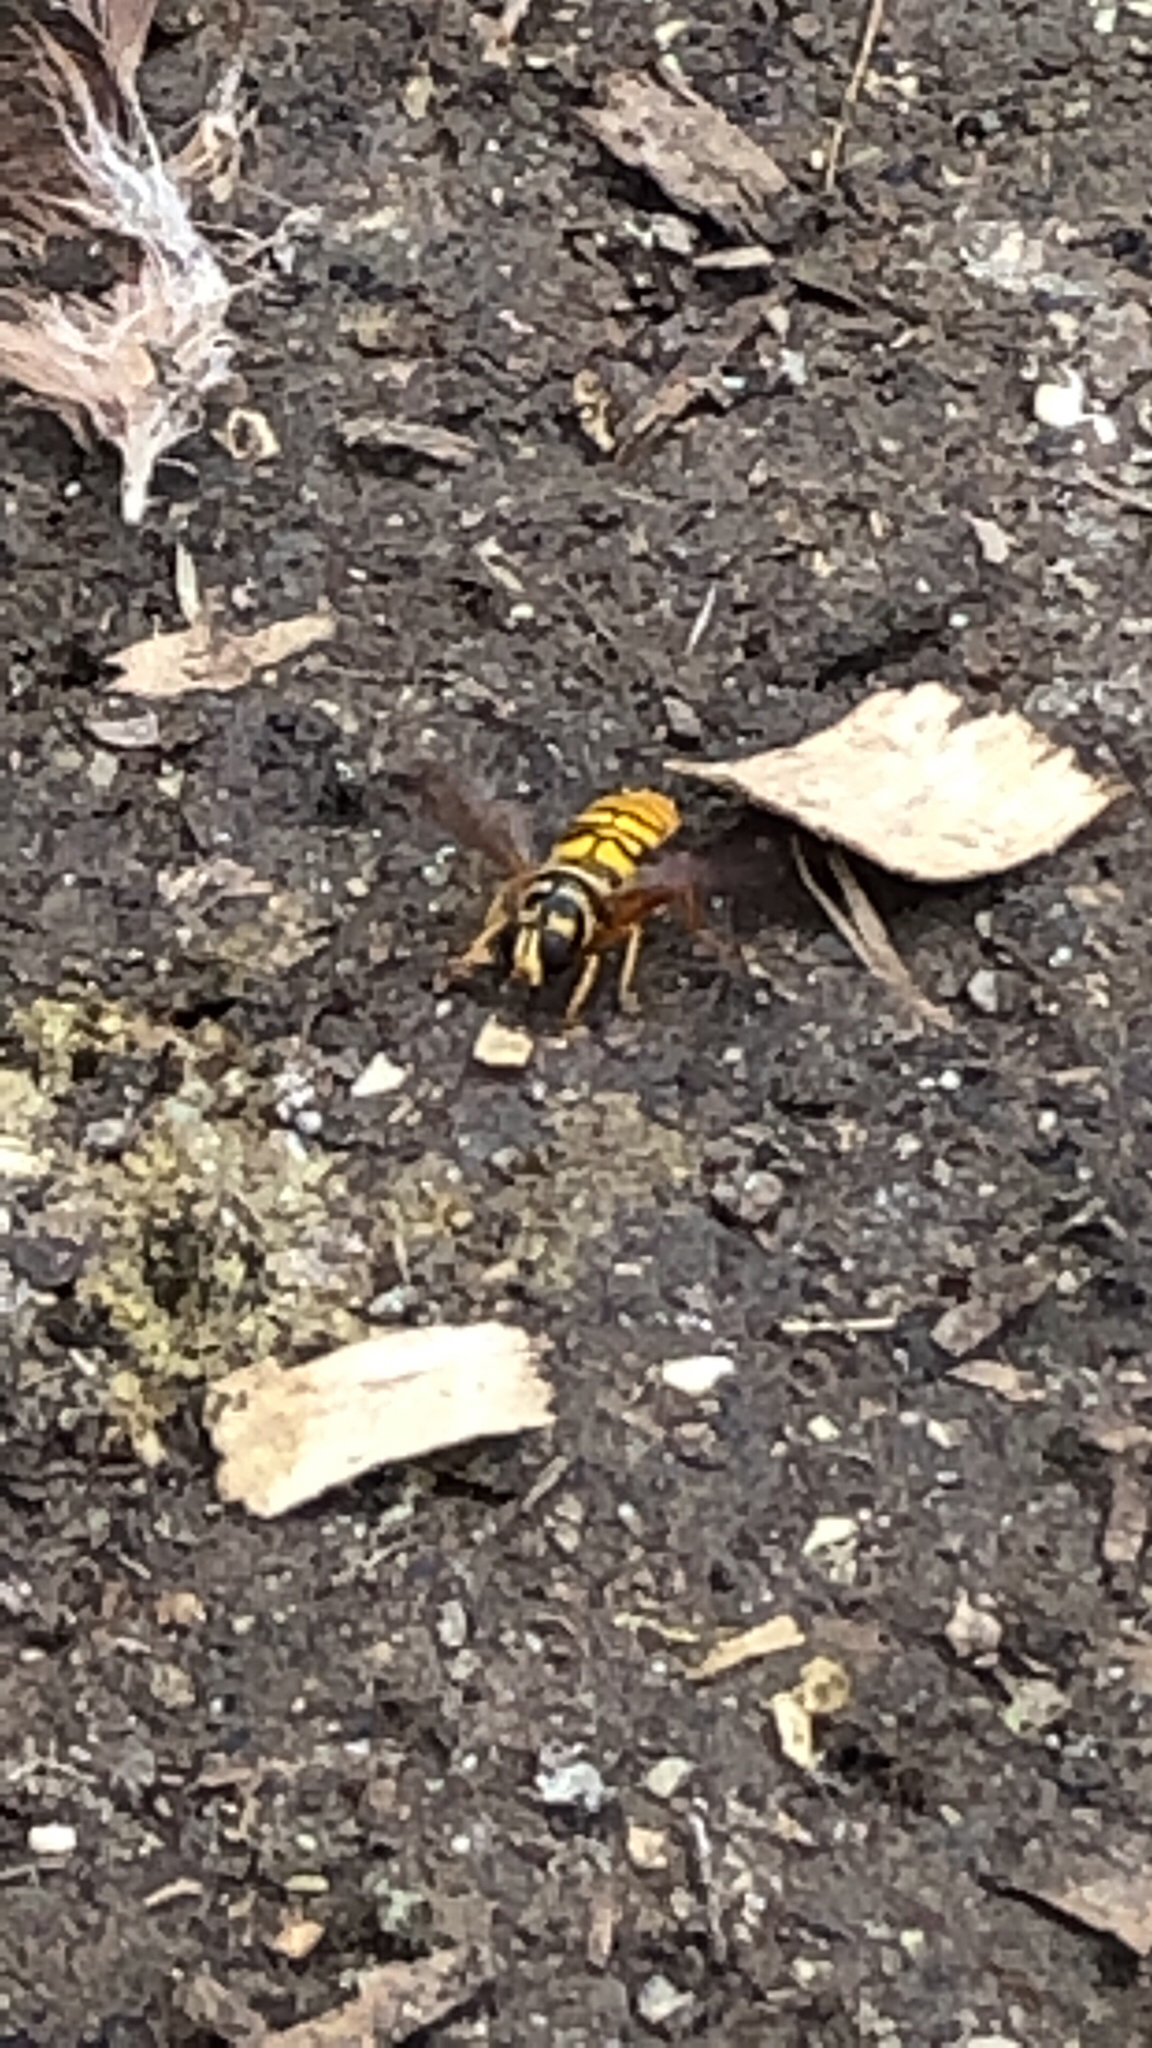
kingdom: Animalia
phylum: Arthropoda
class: Insecta
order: Diptera
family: Syrphidae
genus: Milesia
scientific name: Milesia virginiensis
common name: Virginia giant
